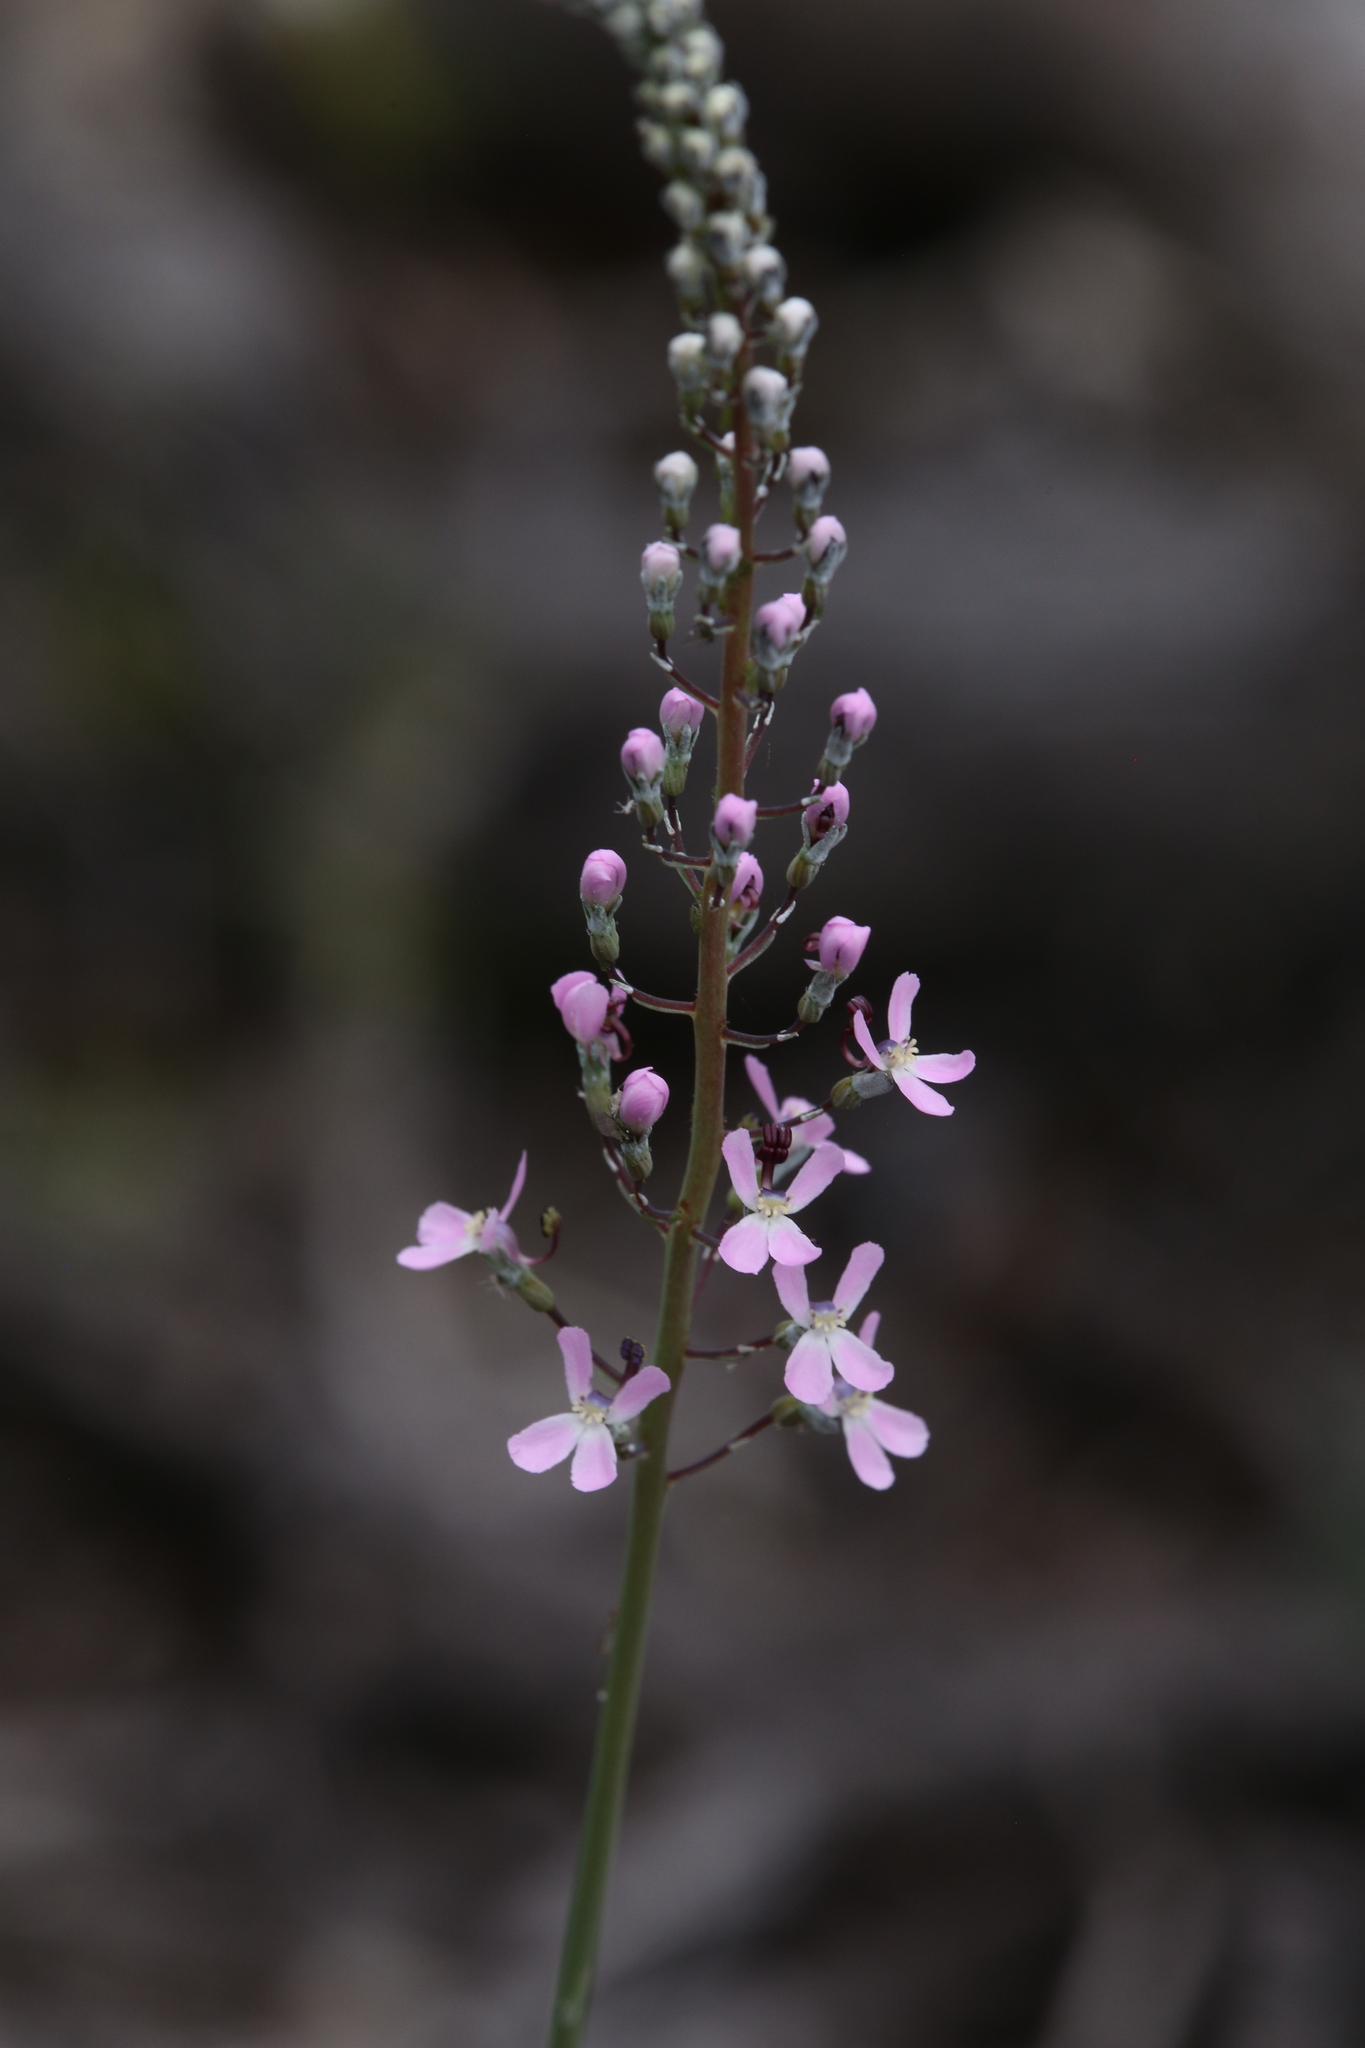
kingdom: Plantae
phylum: Tracheophyta
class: Magnoliopsida
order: Asterales
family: Stylidiaceae
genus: Stylidium
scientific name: Stylidium araeophyllum
